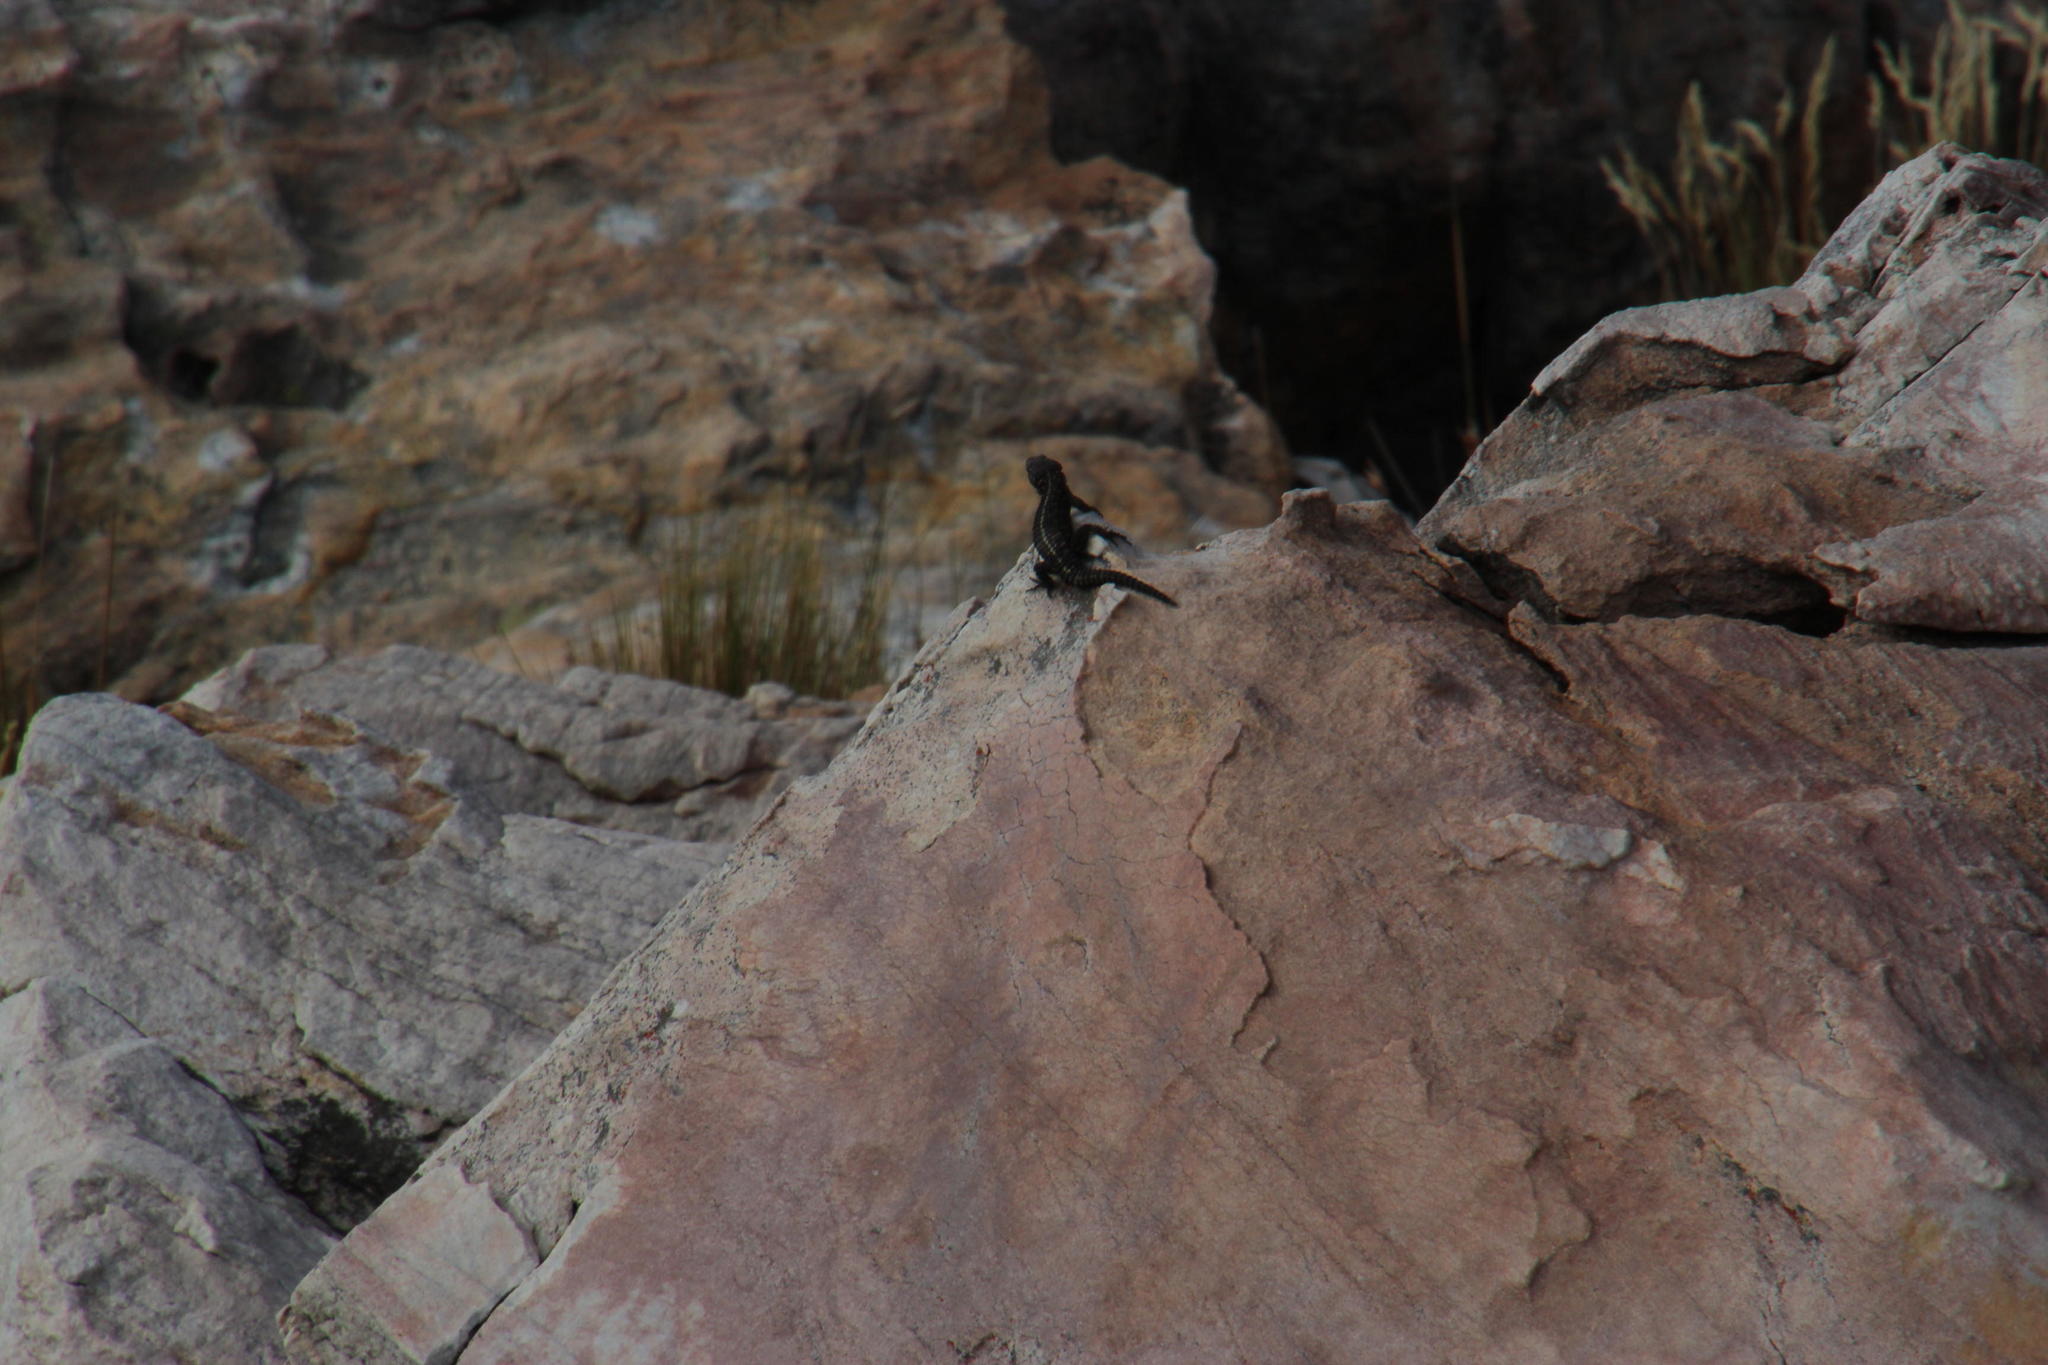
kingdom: Animalia
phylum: Chordata
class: Squamata
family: Cordylidae
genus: Cordylus
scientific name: Cordylus cordylus
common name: Cape girdled lizard
